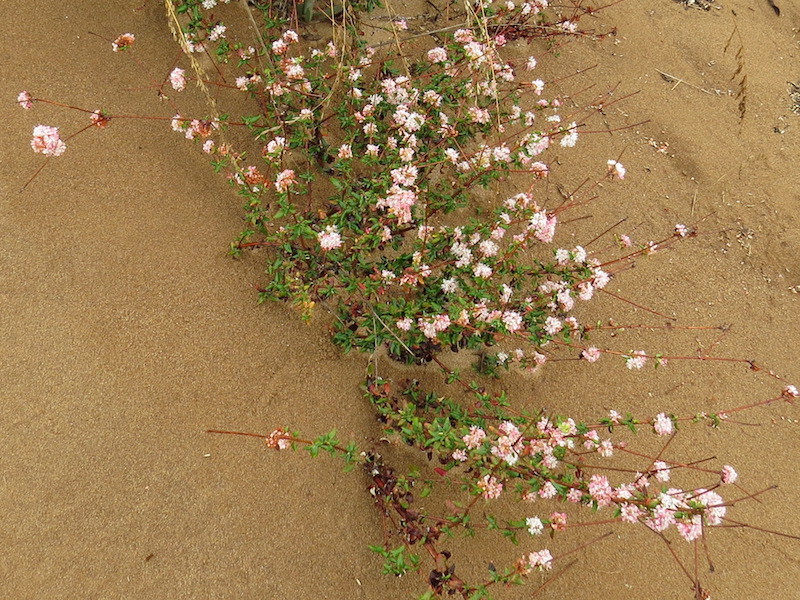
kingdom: Plantae
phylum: Tracheophyta
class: Magnoliopsida
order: Caryophyllales
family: Polygonaceae
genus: Eriogonum
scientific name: Eriogonum parvifolium
